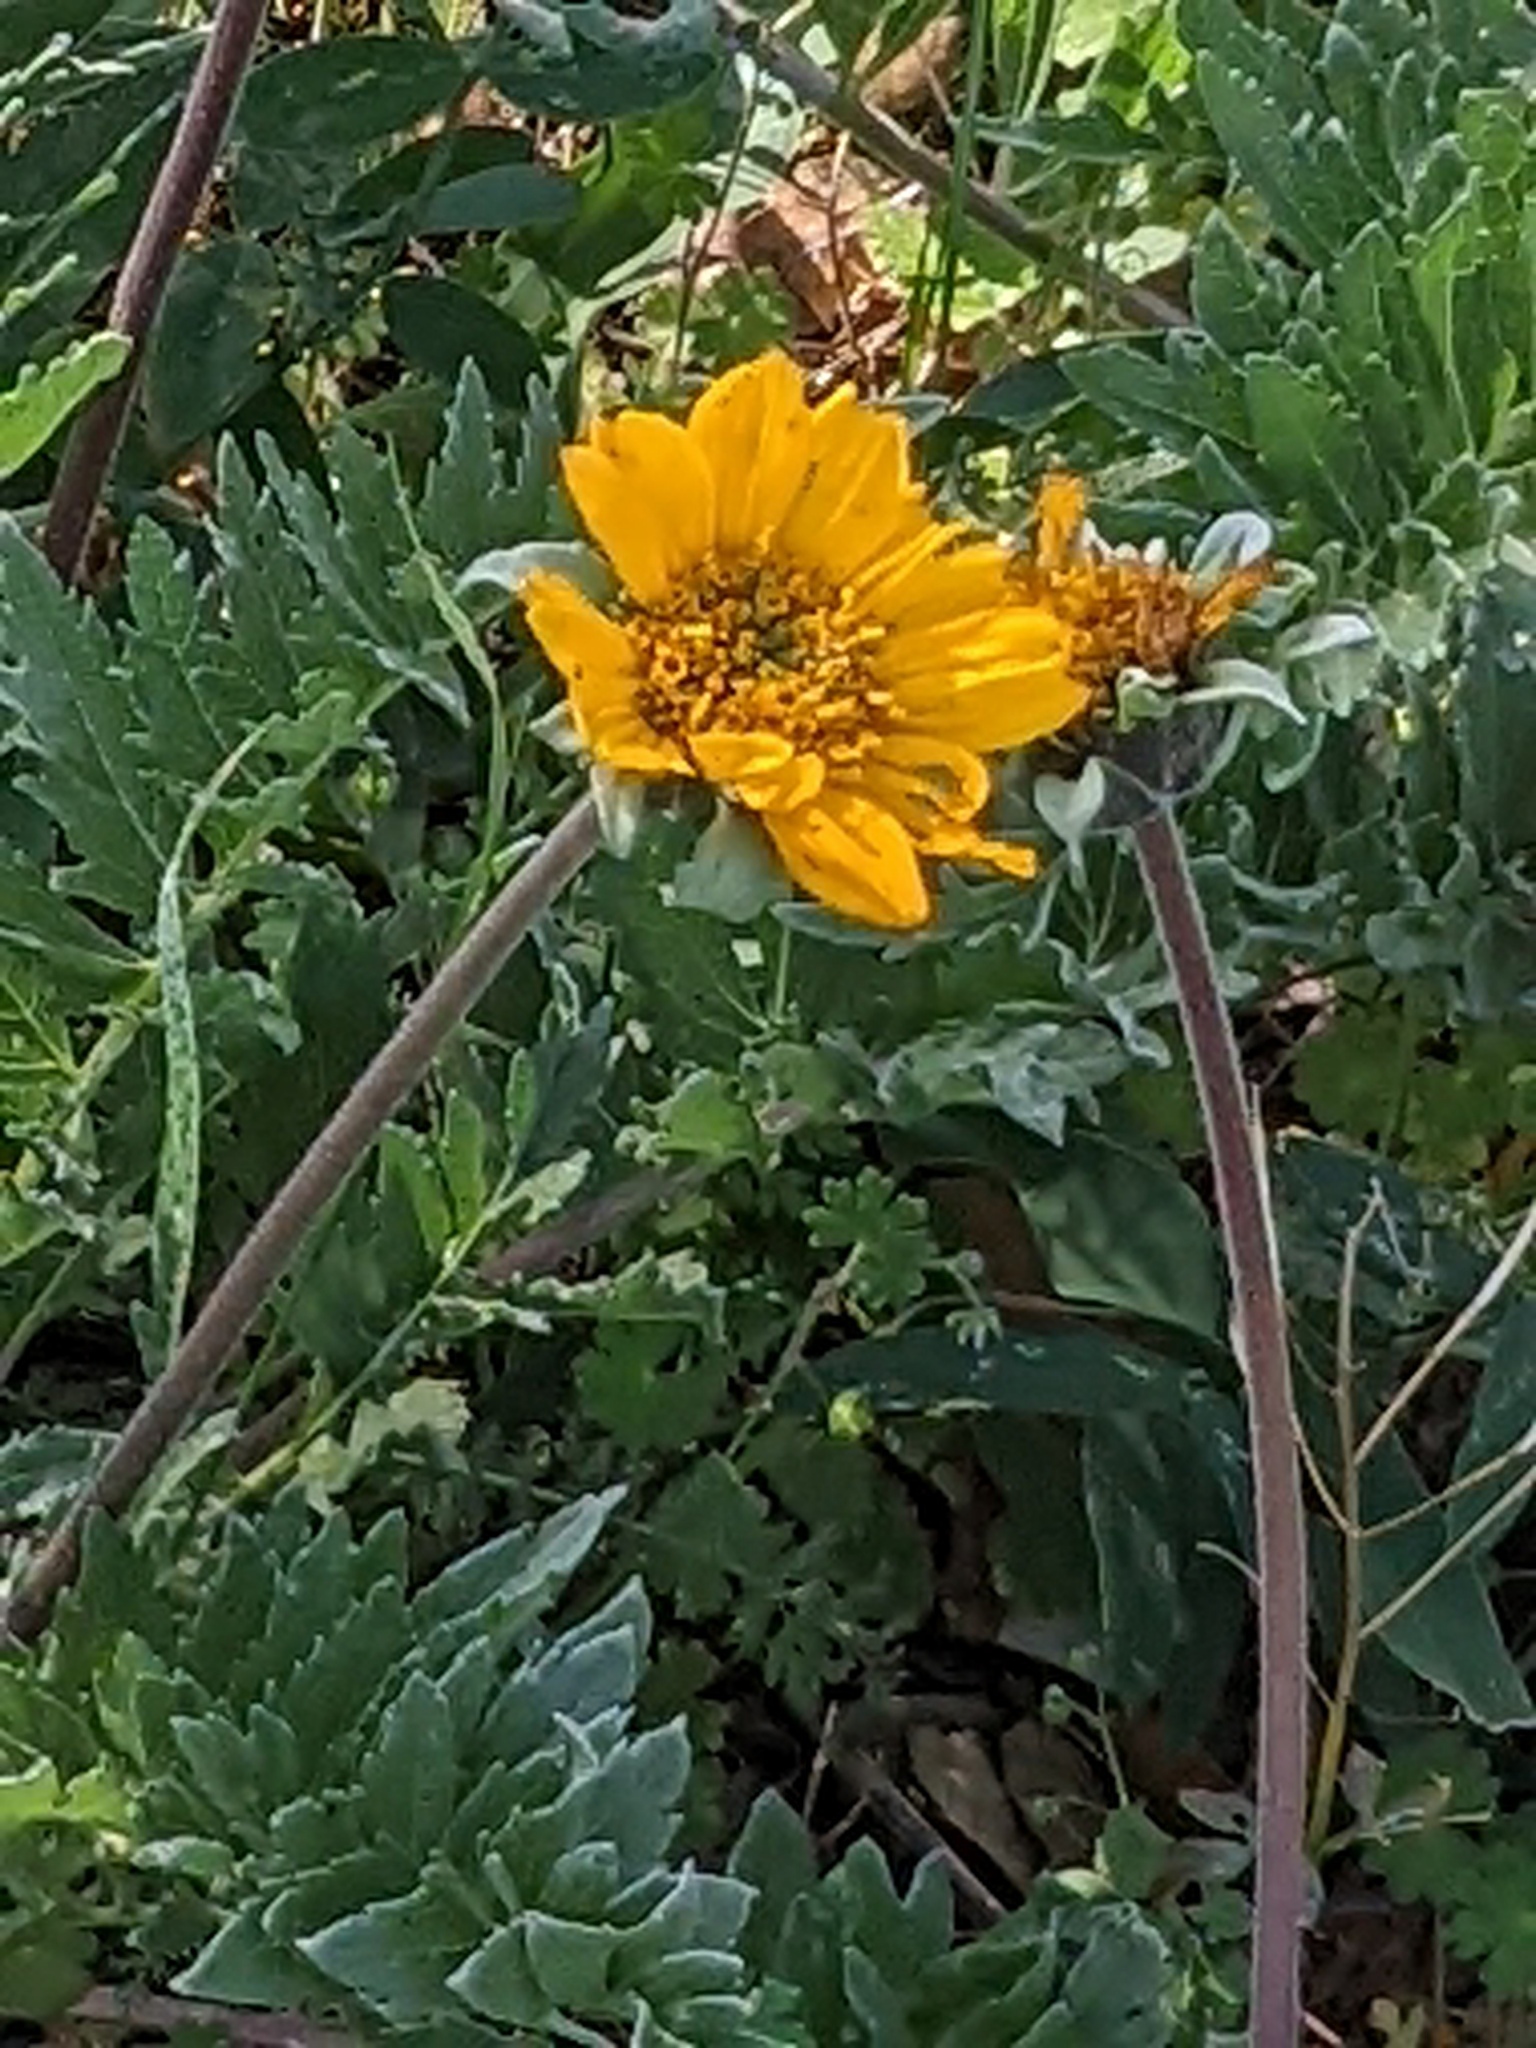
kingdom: Plantae
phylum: Tracheophyta
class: Magnoliopsida
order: Asterales
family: Asteraceae
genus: Balsamorhiza
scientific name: Balsamorhiza macrolepis
